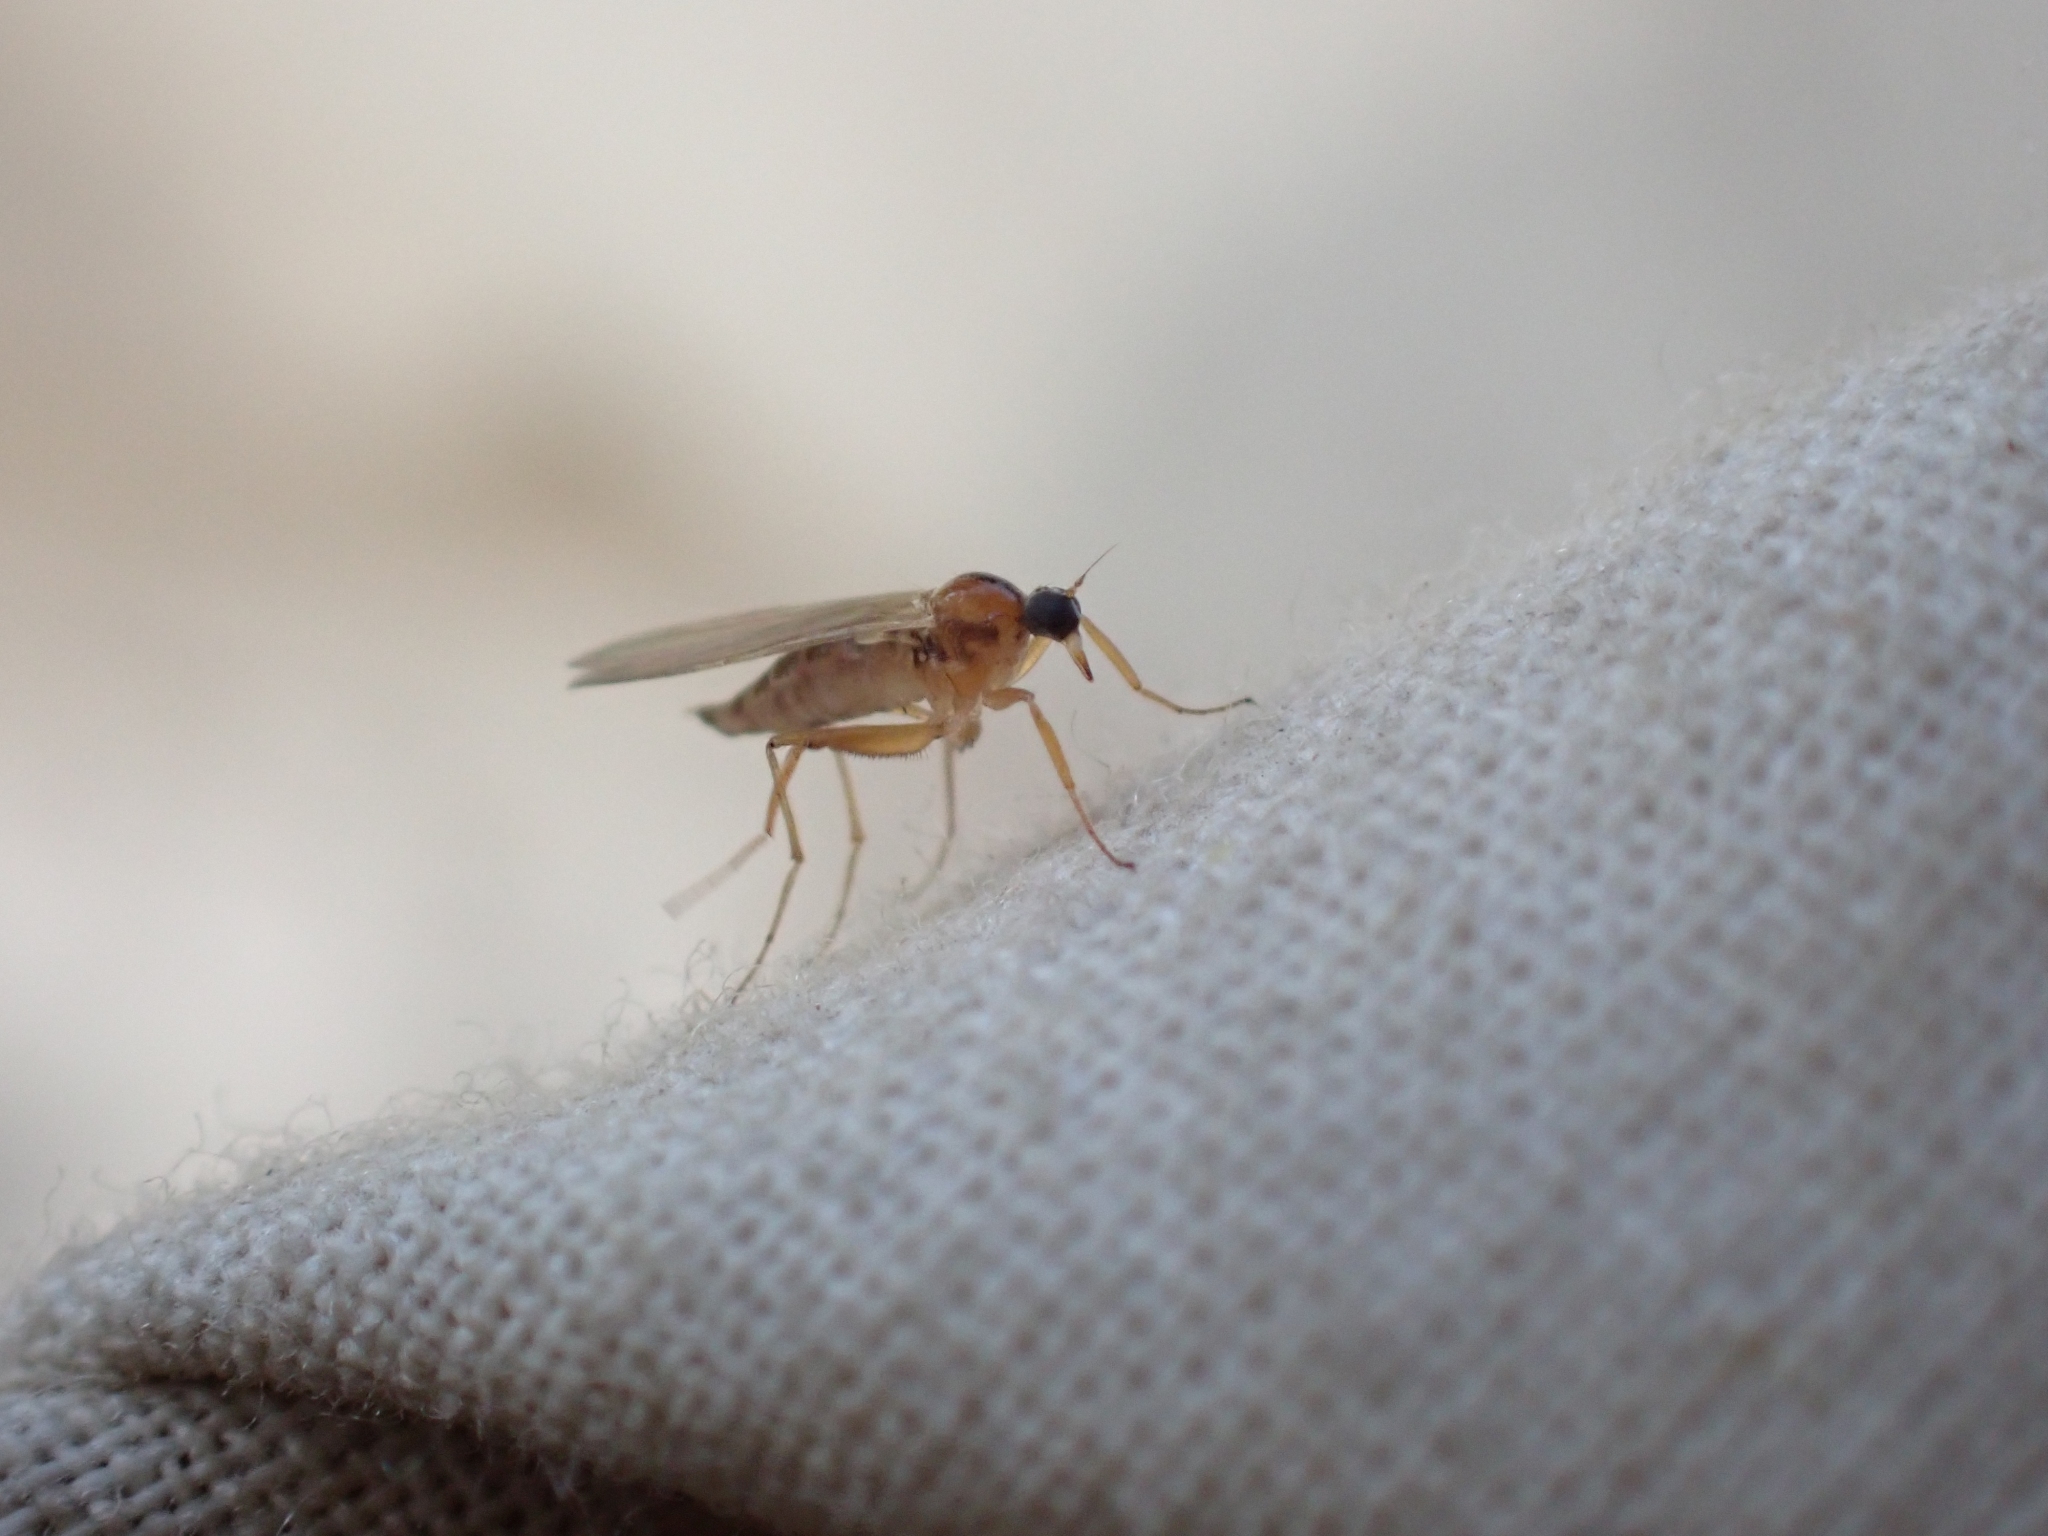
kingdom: Animalia
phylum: Arthropoda
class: Insecta
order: Diptera
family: Hybotidae
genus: Platypalpus
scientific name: Platypalpus vittiger
